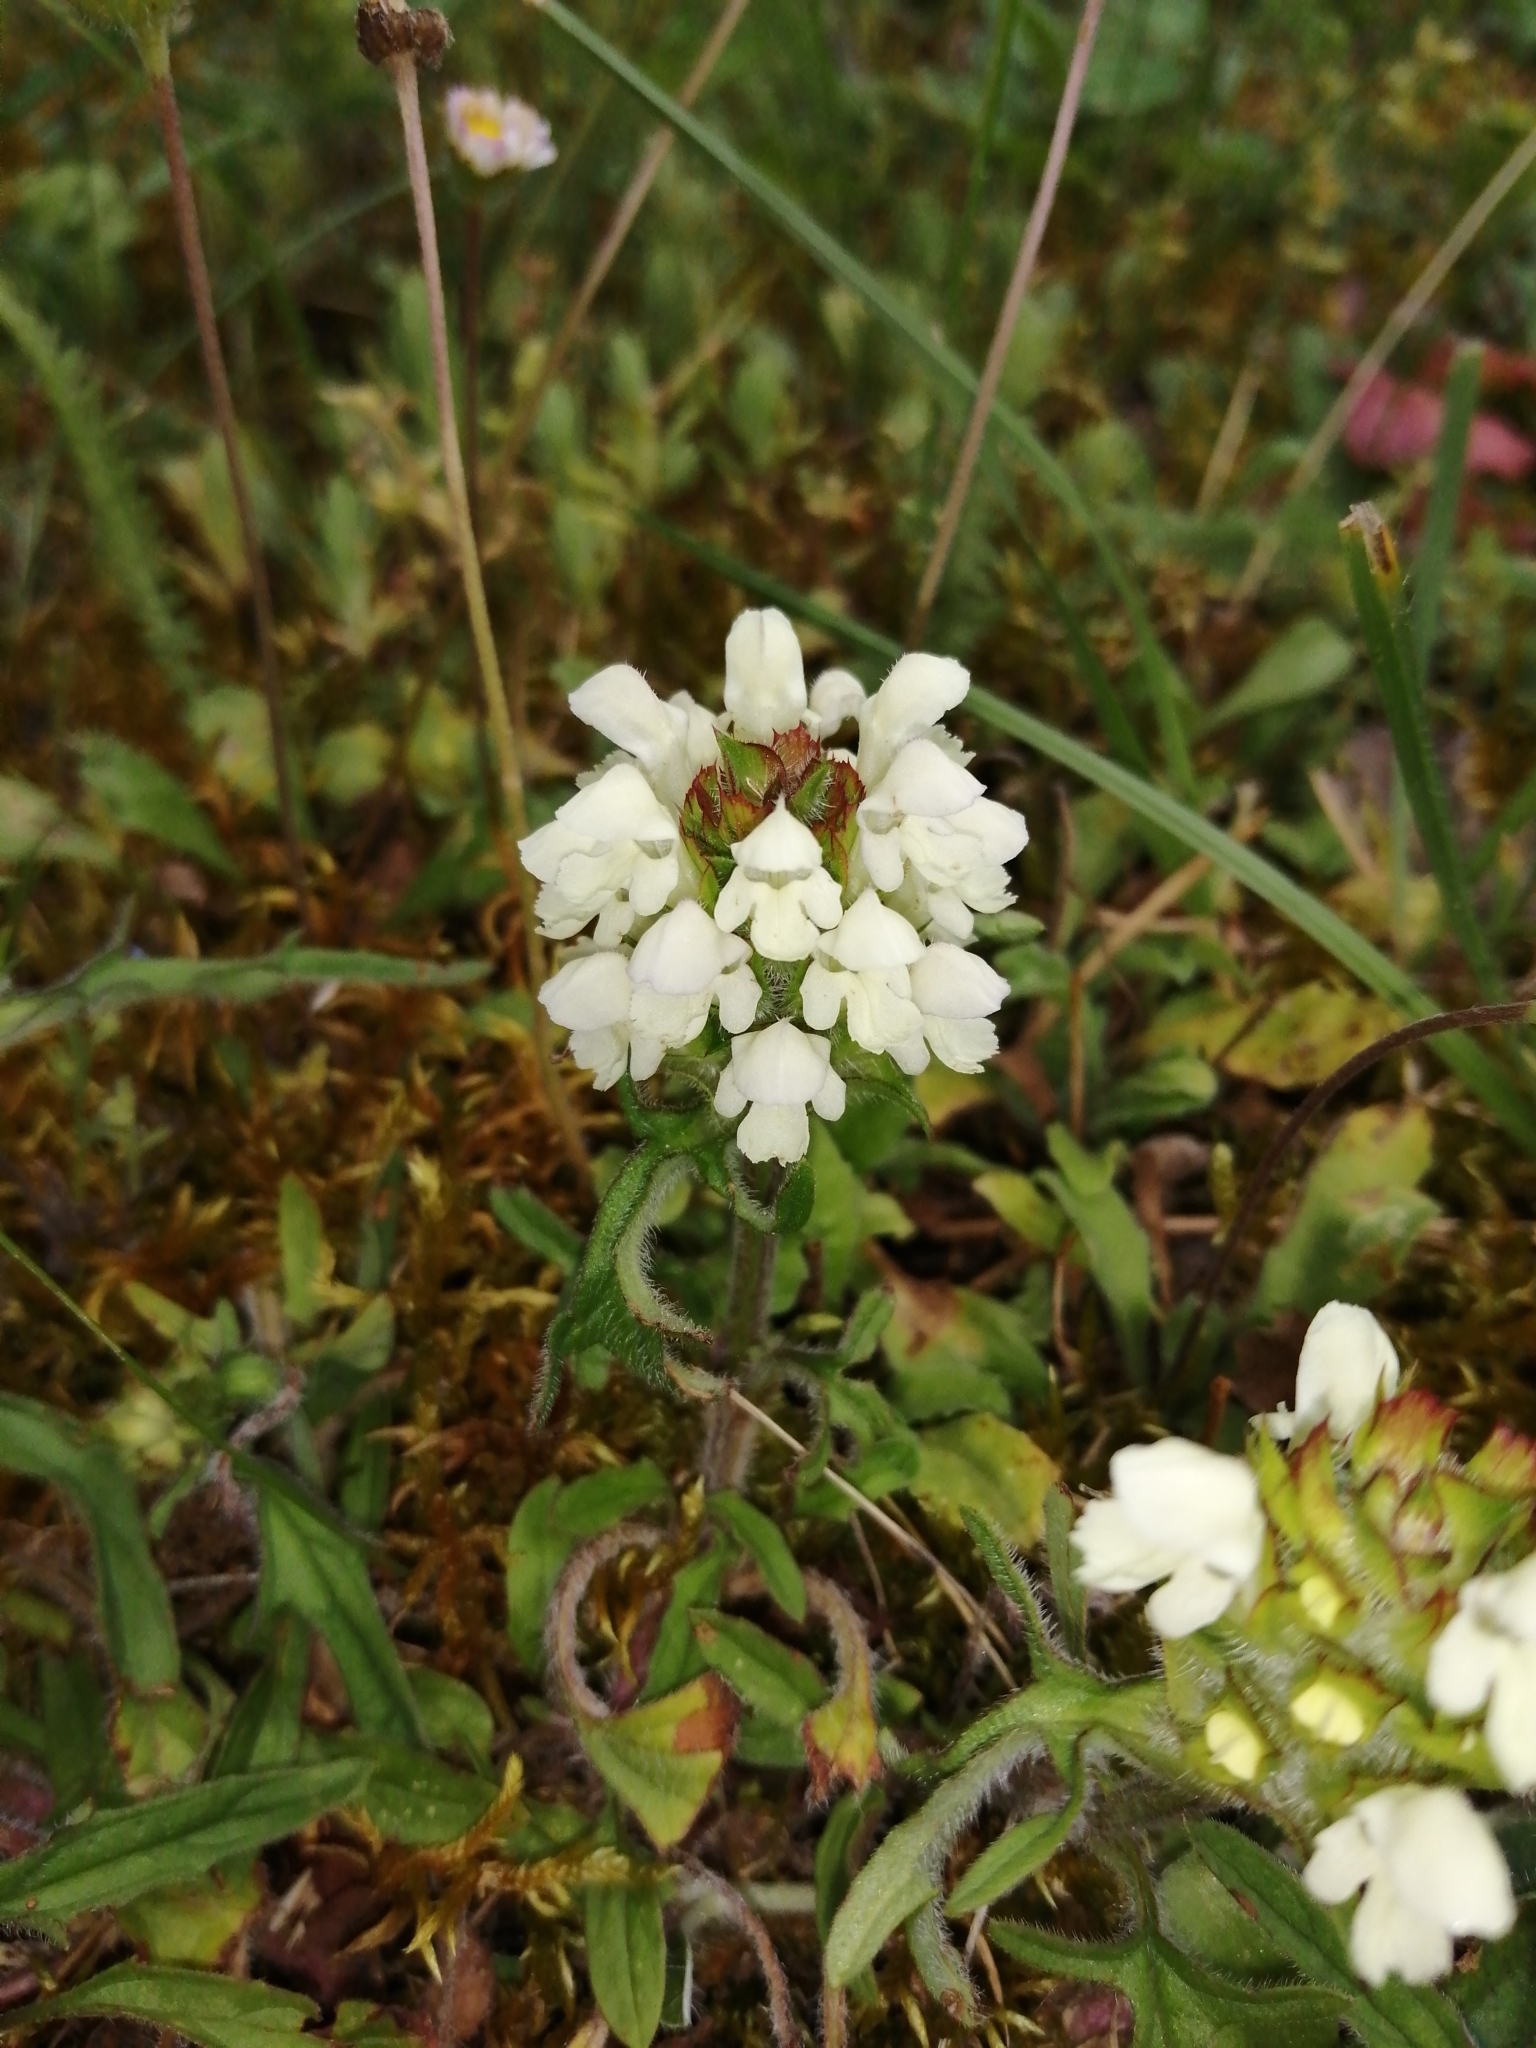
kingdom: Plantae
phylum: Tracheophyta
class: Magnoliopsida
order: Lamiales
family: Lamiaceae
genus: Prunella
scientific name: Prunella laciniata
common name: Cut-leaved selfheal
